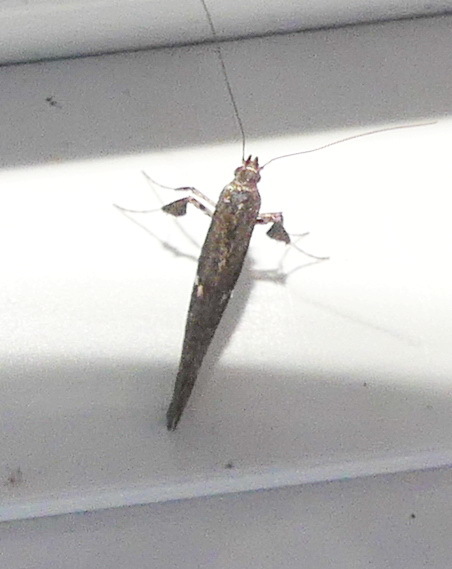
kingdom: Animalia
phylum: Arthropoda
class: Insecta
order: Lepidoptera
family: Gracillariidae
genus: Caloptilia
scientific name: Caloptilia stigmatella
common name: White-triangle slender
